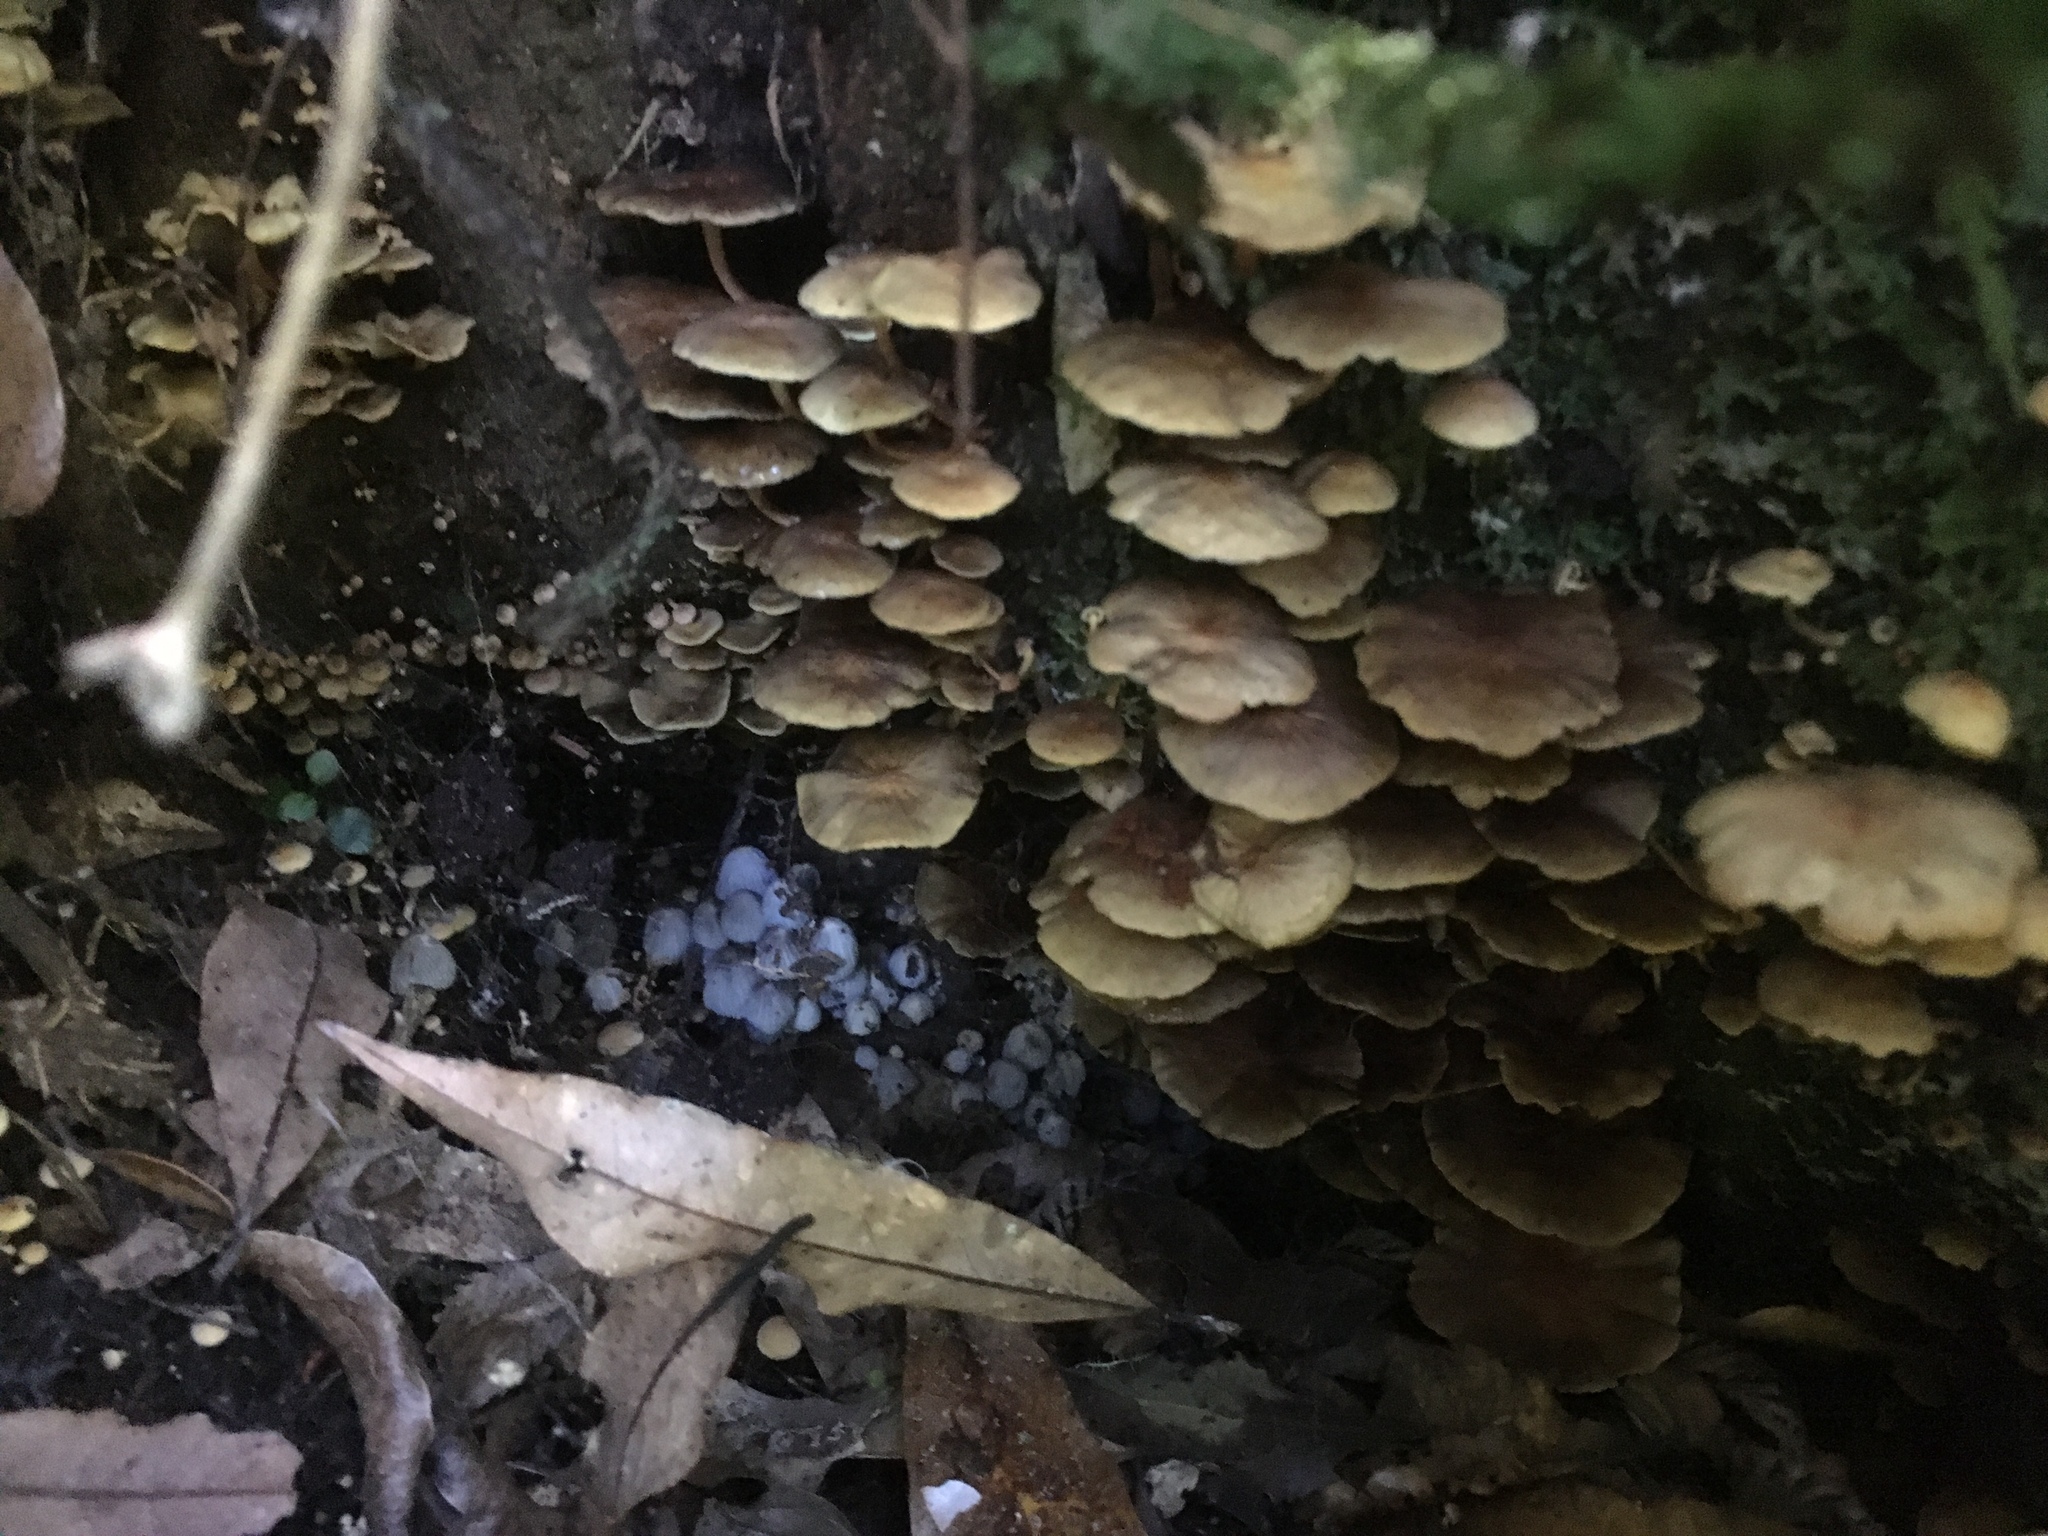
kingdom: Fungi
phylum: Basidiomycota
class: Agaricomycetes
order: Agaricales
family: Strophariaceae
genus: Hypholoma
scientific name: Hypholoma acutum
